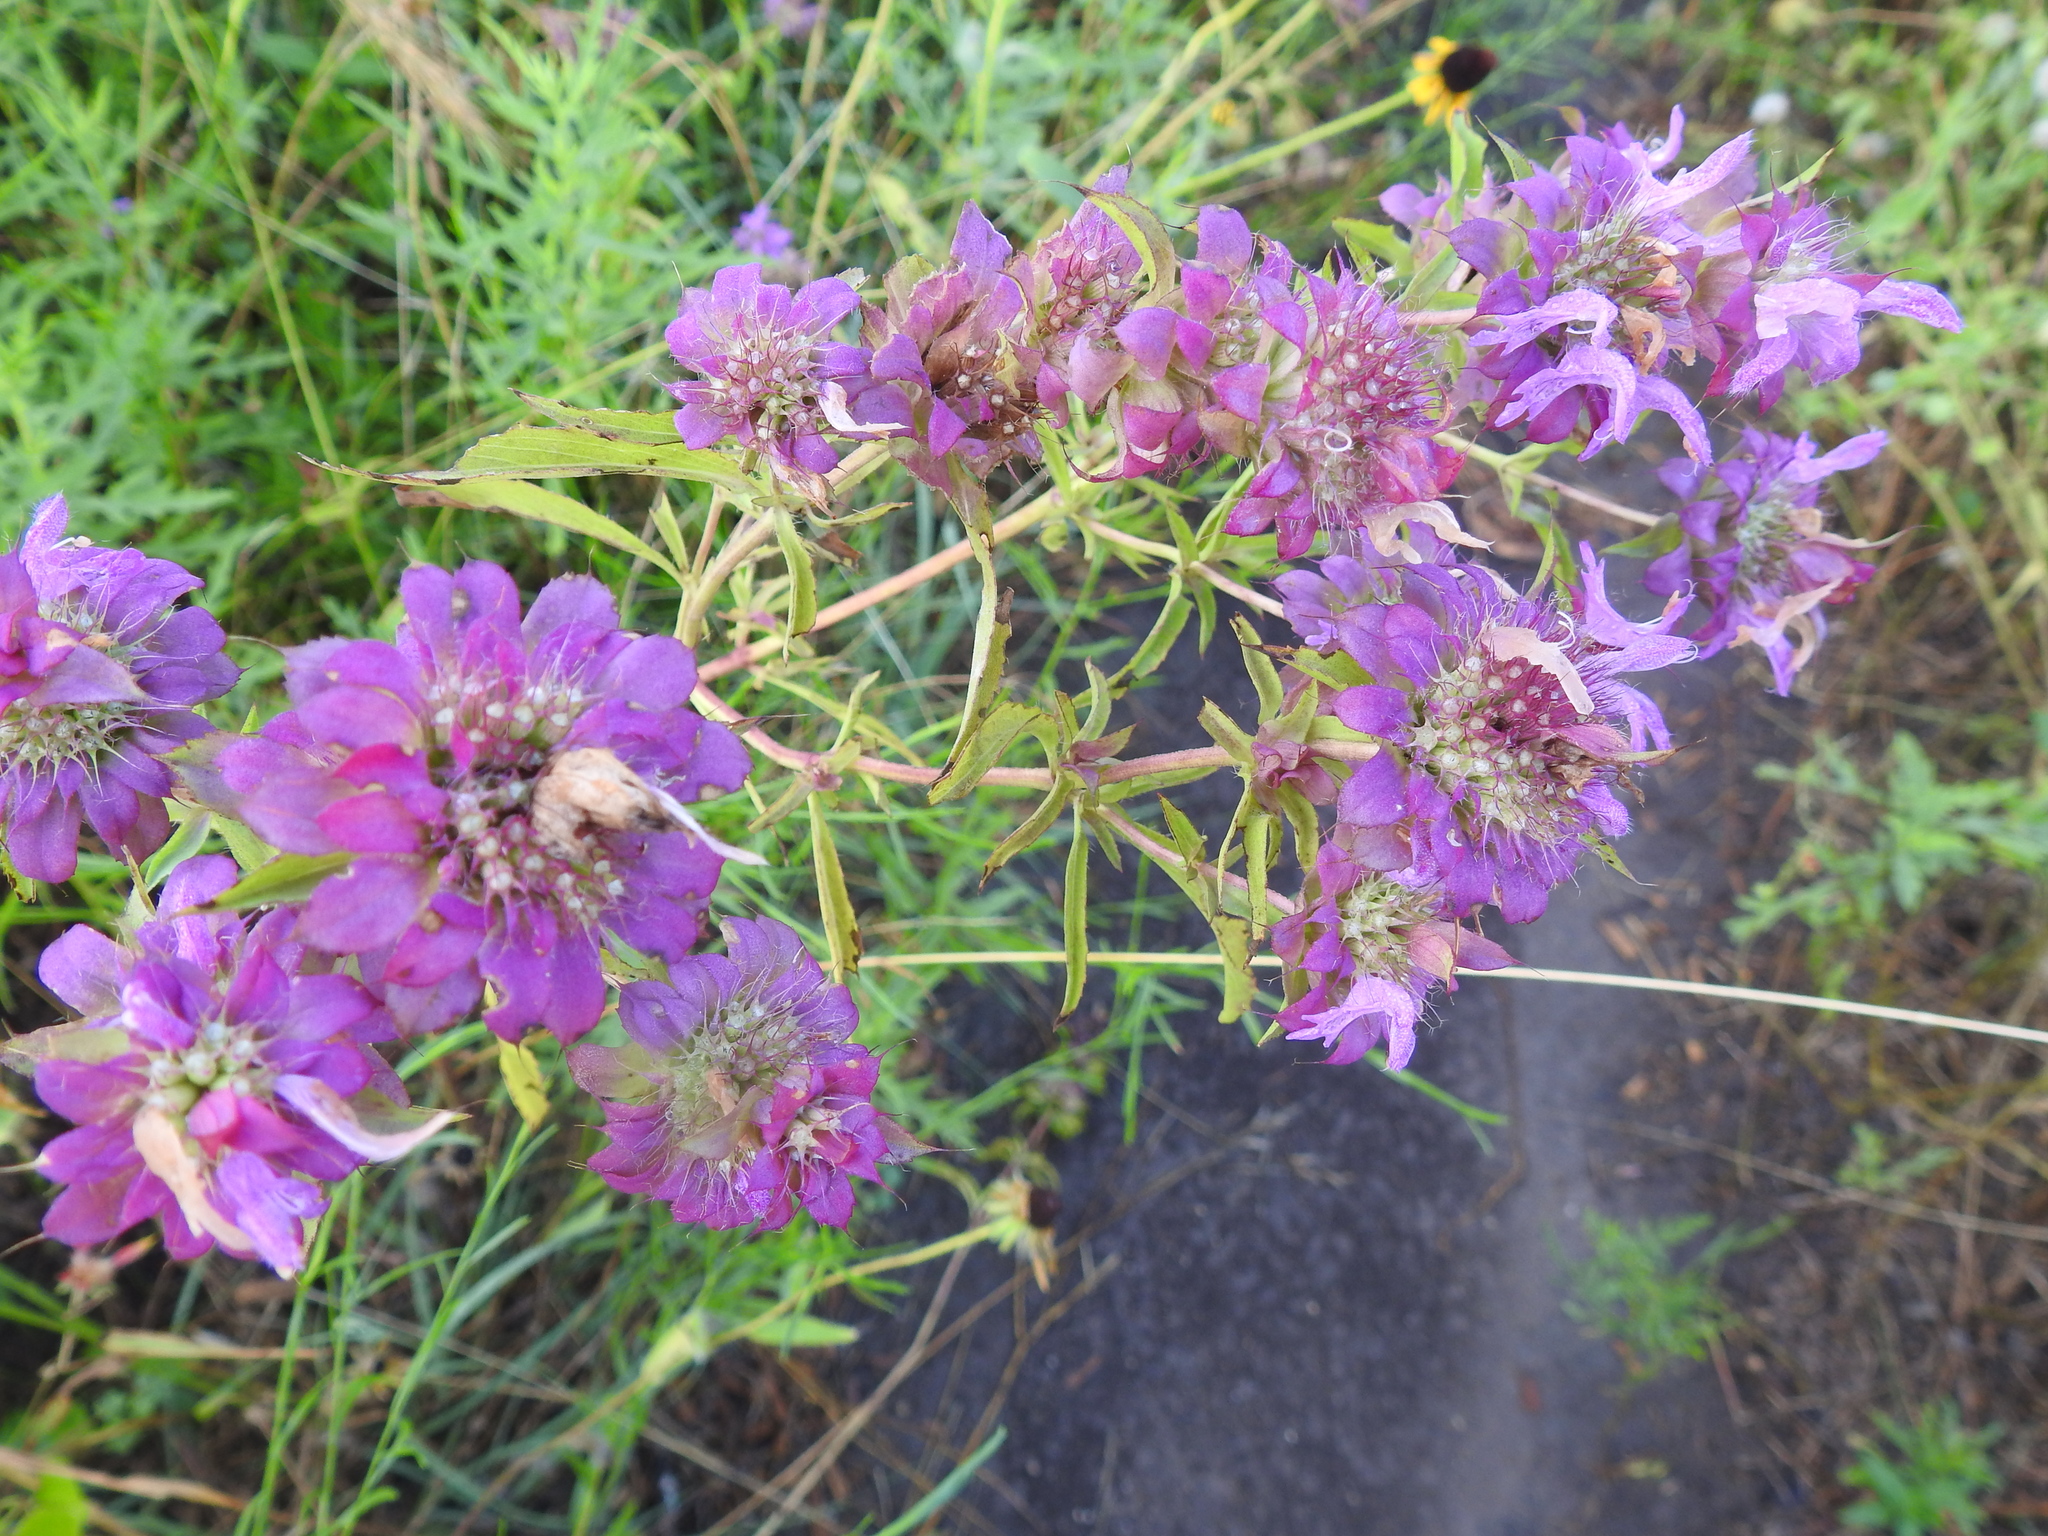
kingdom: Plantae
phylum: Tracheophyta
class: Magnoliopsida
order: Lamiales
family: Lamiaceae
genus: Monarda
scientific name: Monarda citriodora
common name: Lemon beebalm
